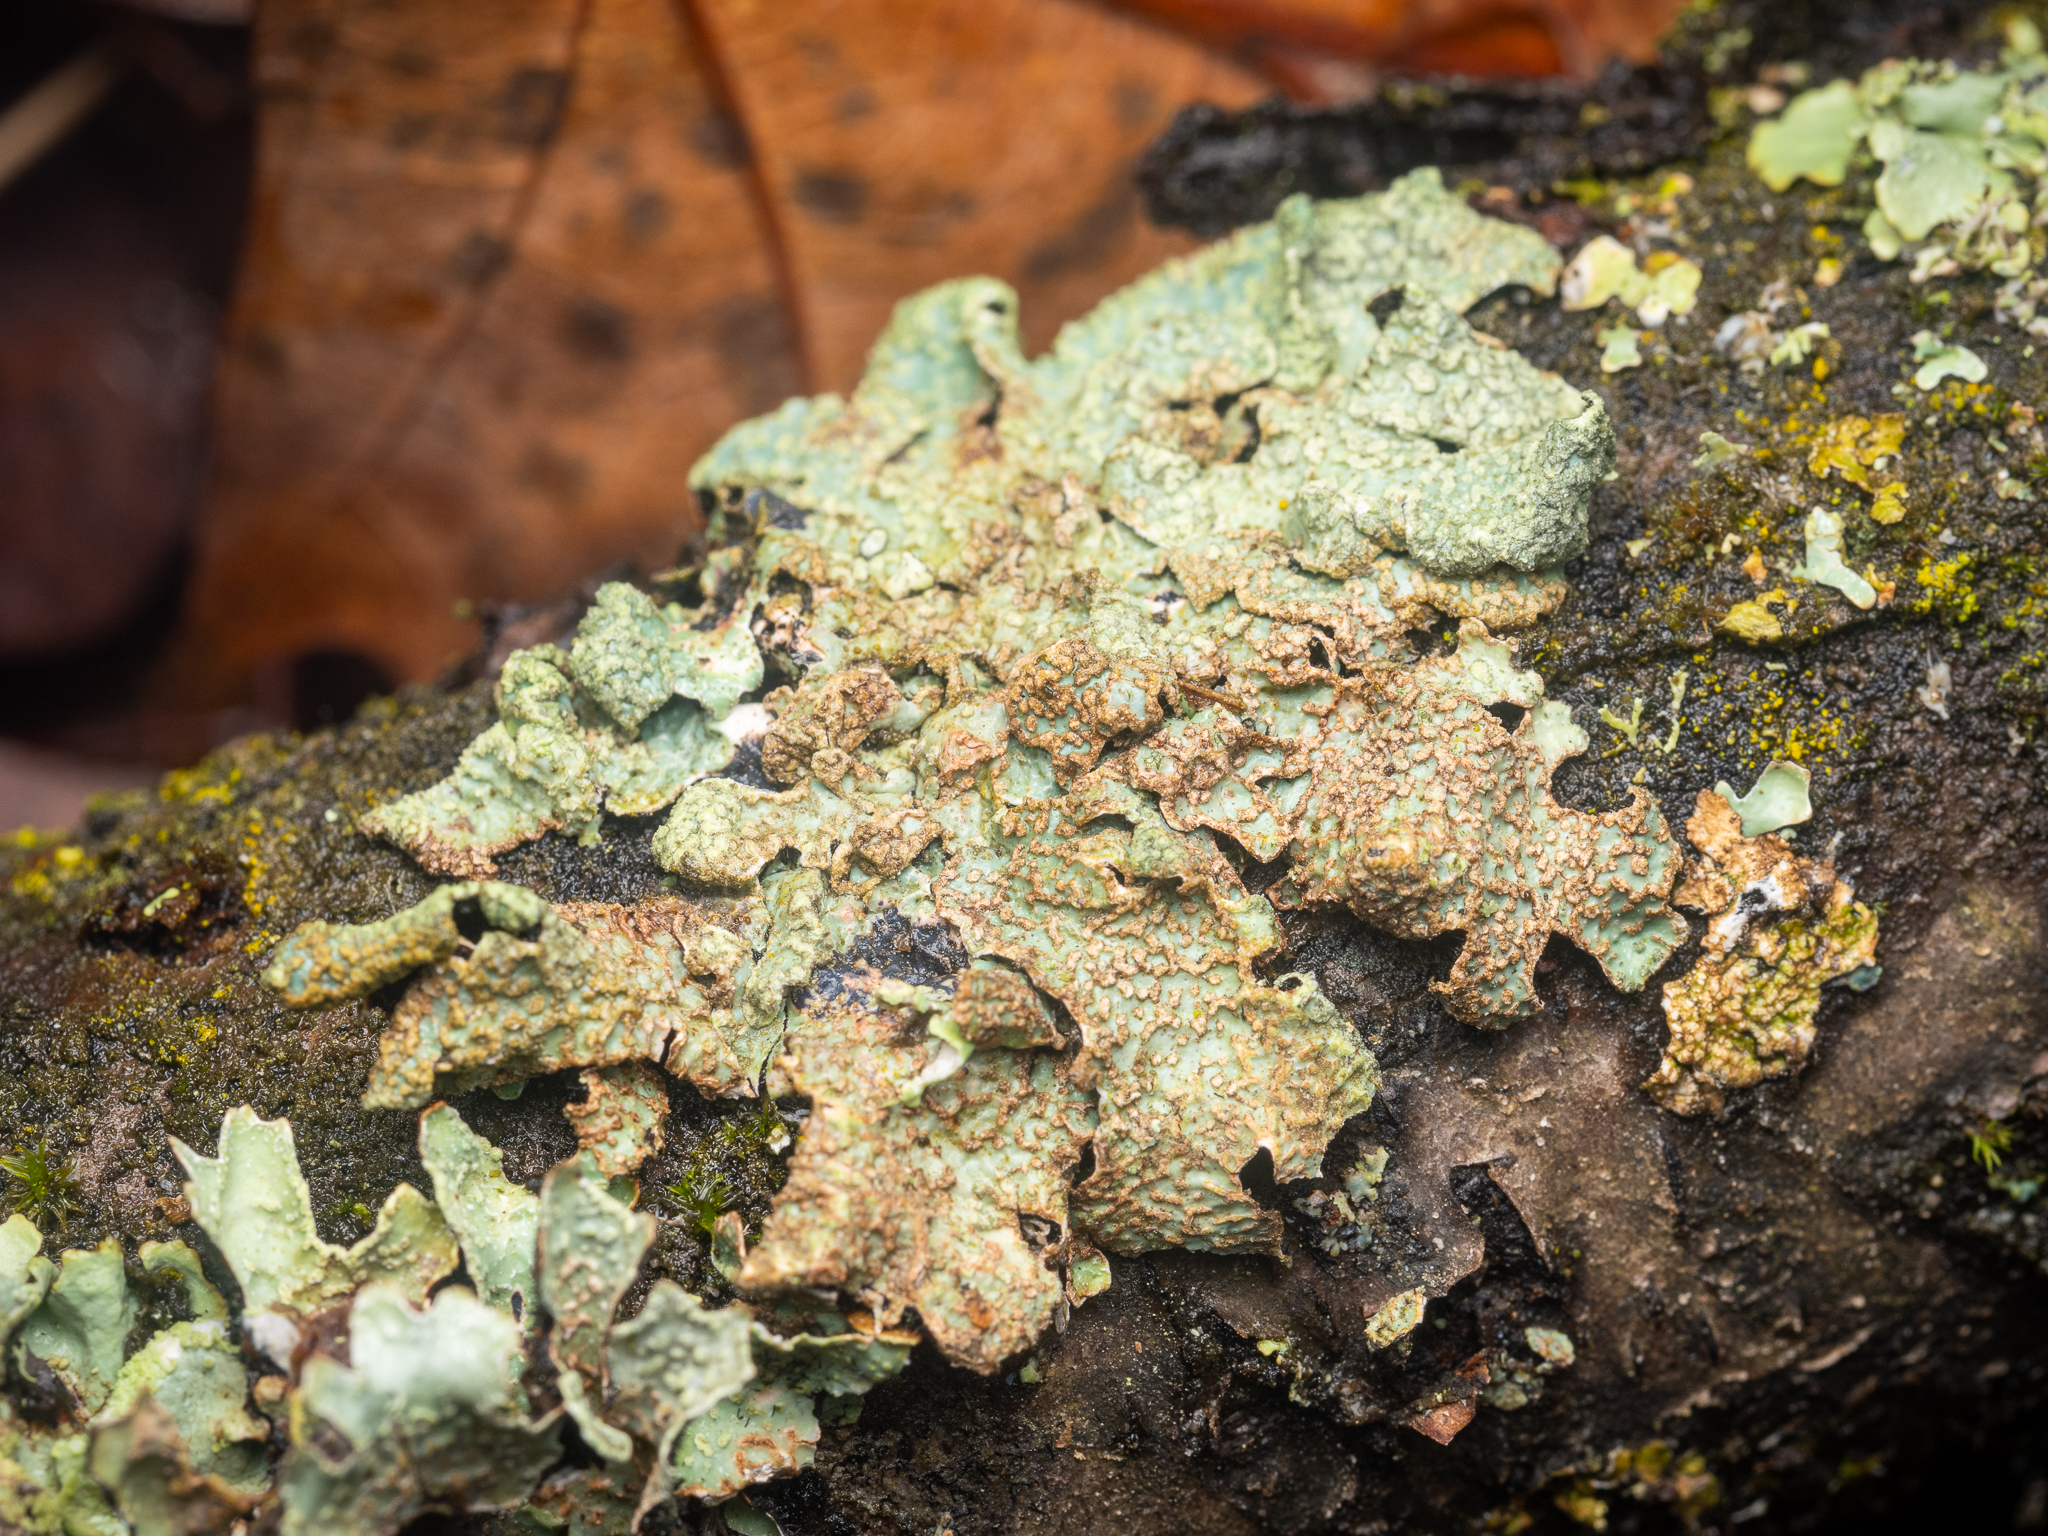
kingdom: Fungi
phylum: Ascomycota
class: Lecanoromycetes
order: Lecanorales
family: Parmeliaceae
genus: Parmelia
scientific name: Parmelia sulcata
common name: Netted shield lichen
